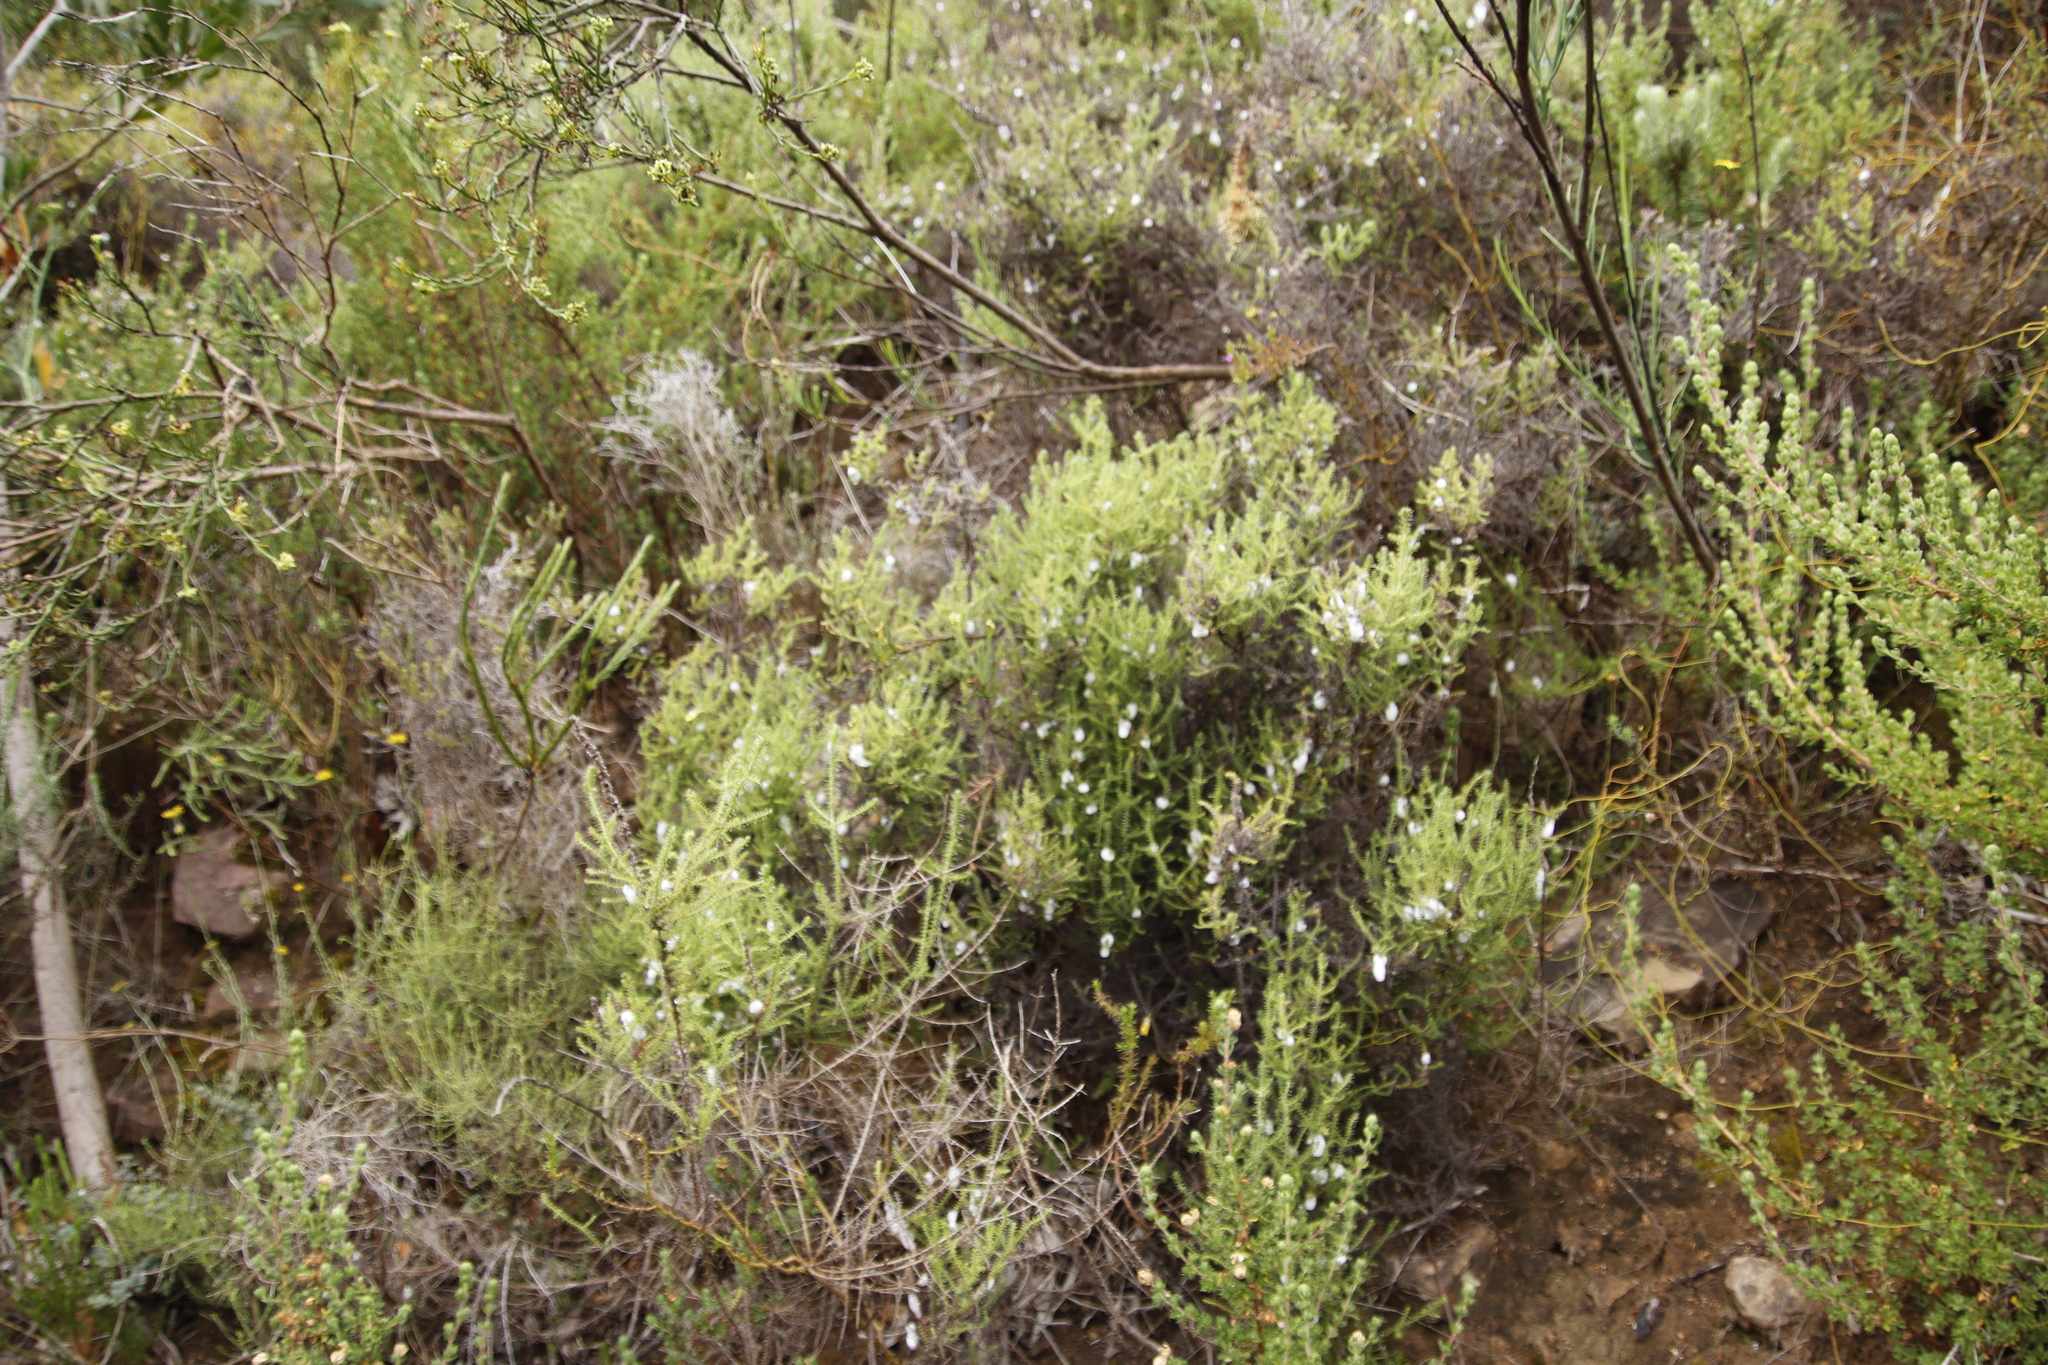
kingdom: Plantae
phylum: Tracheophyta
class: Magnoliopsida
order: Asterales
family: Asteraceae
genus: Seriphium
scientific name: Seriphium cinereum
